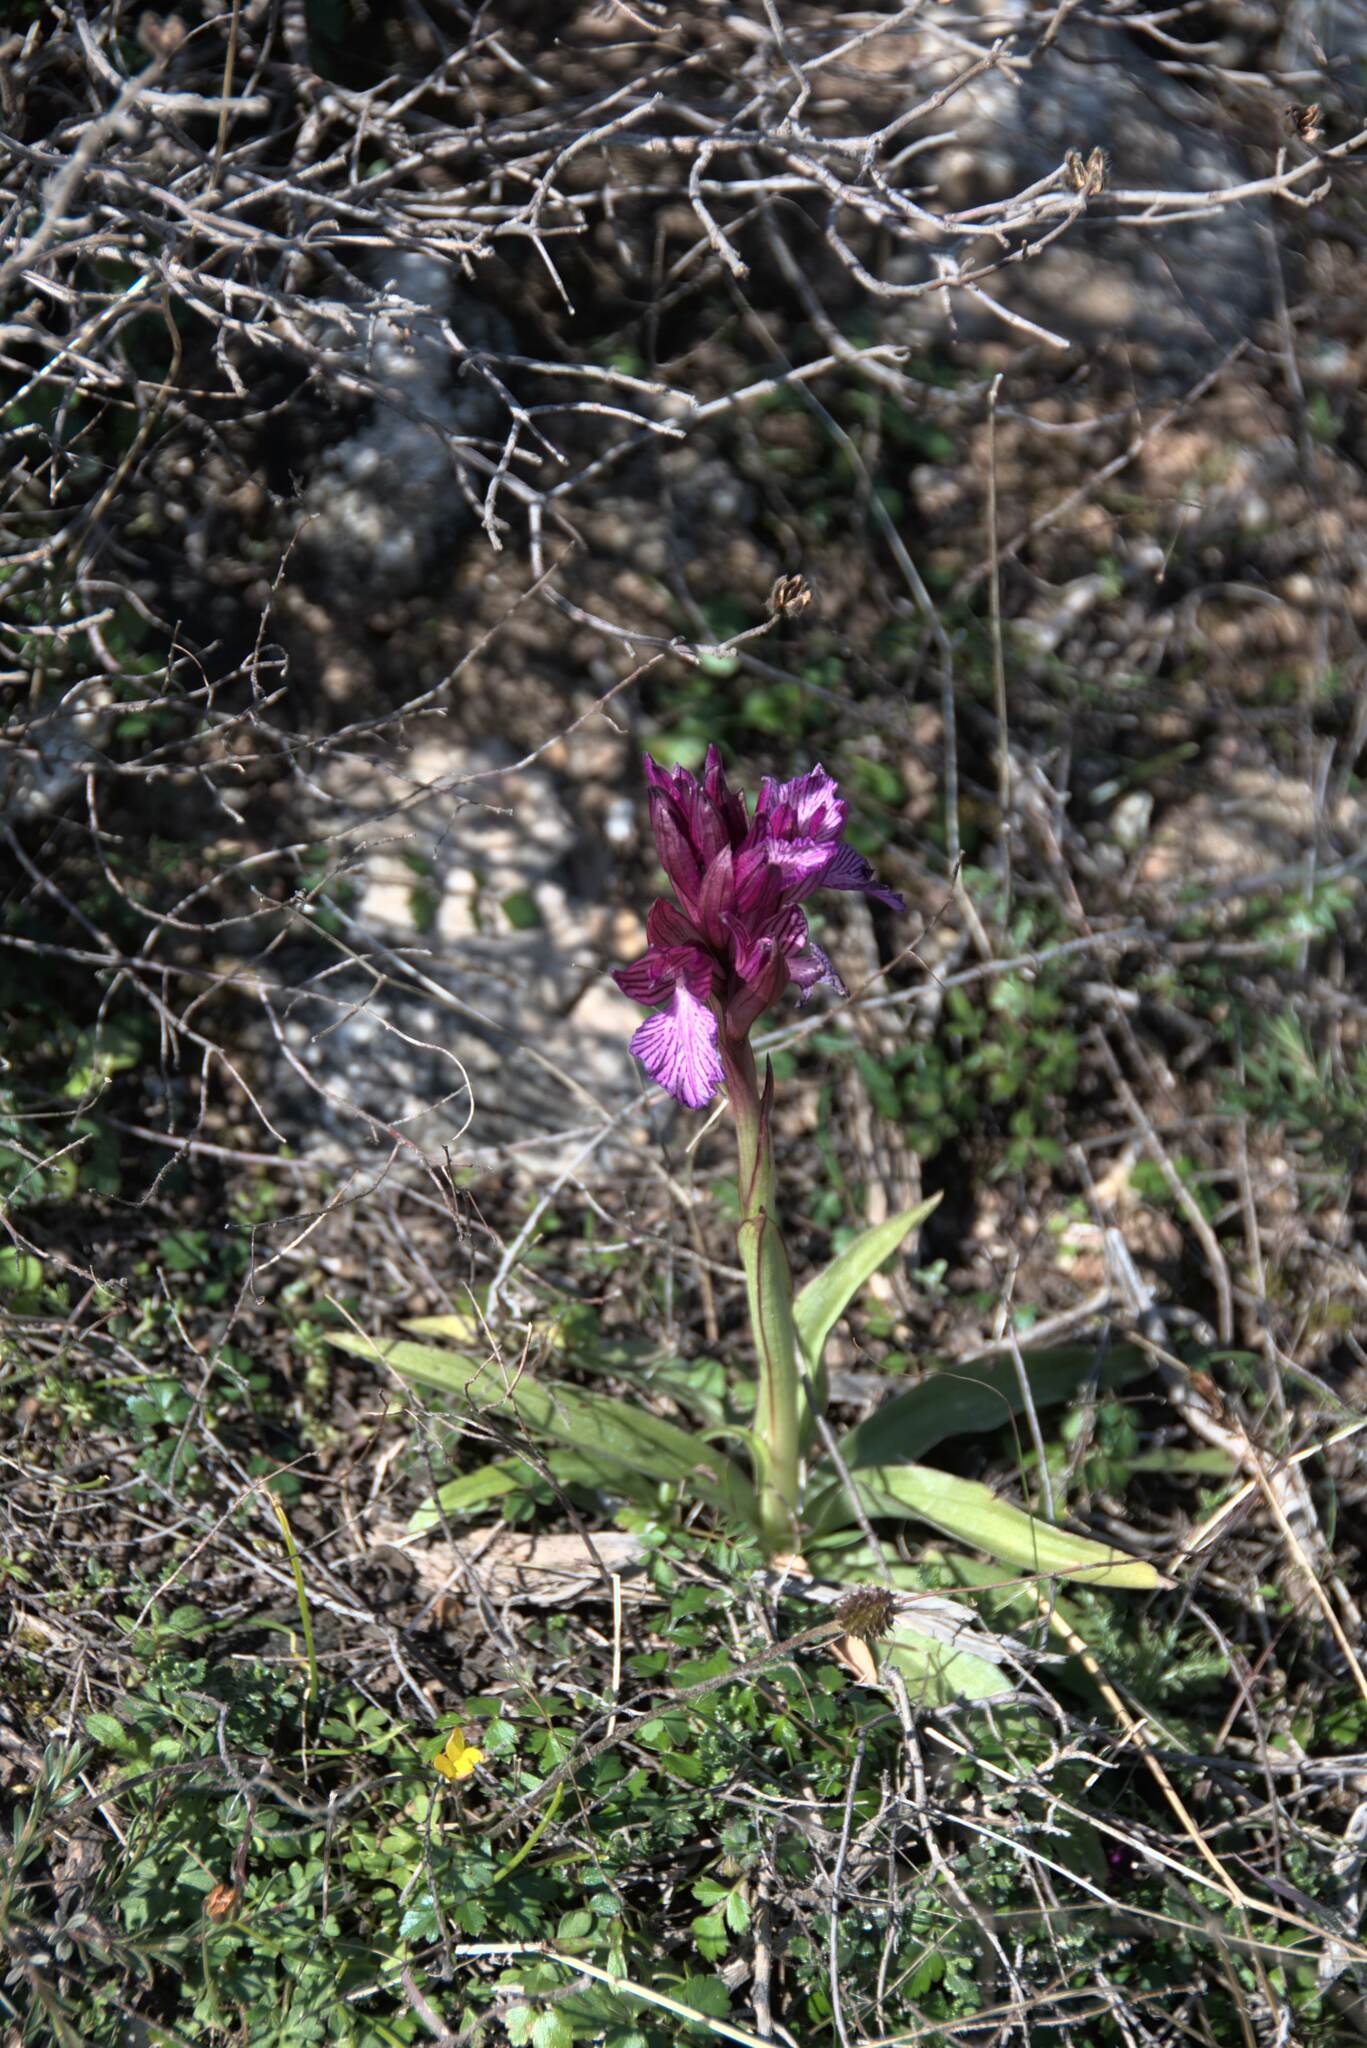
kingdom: Plantae
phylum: Tracheophyta
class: Liliopsida
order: Asparagales
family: Orchidaceae
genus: Anacamptis
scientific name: Anacamptis papilionacea
